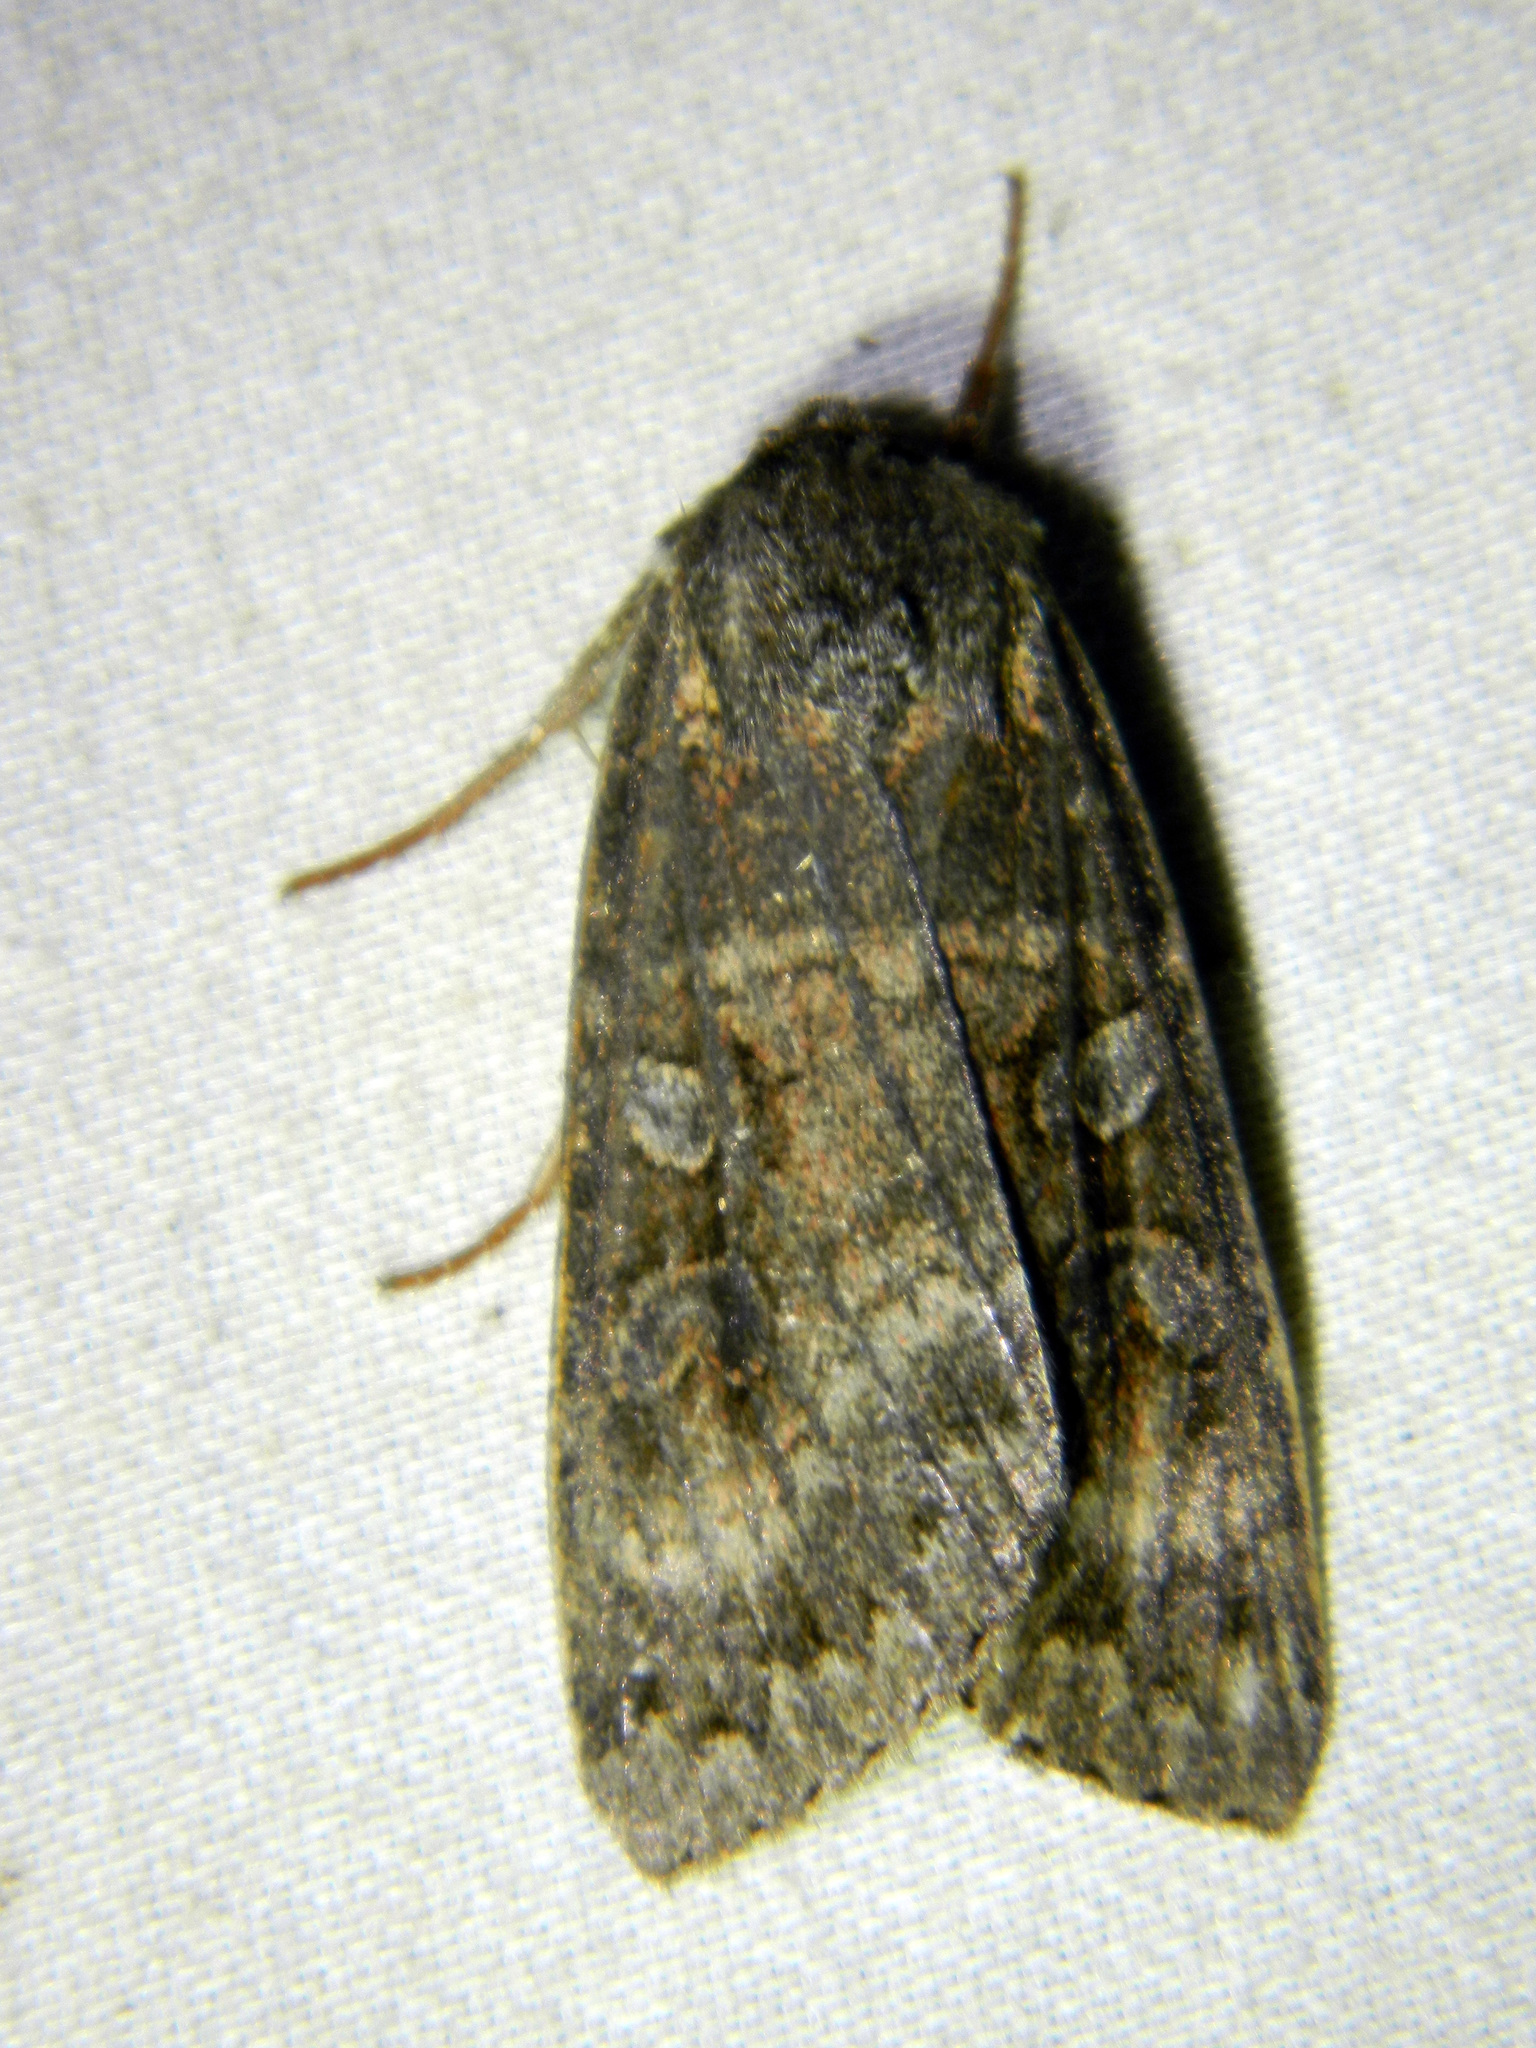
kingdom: Animalia
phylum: Arthropoda
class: Insecta
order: Lepidoptera
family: Noctuidae
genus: Eurois
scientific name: Eurois astricta
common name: Great brown dart
